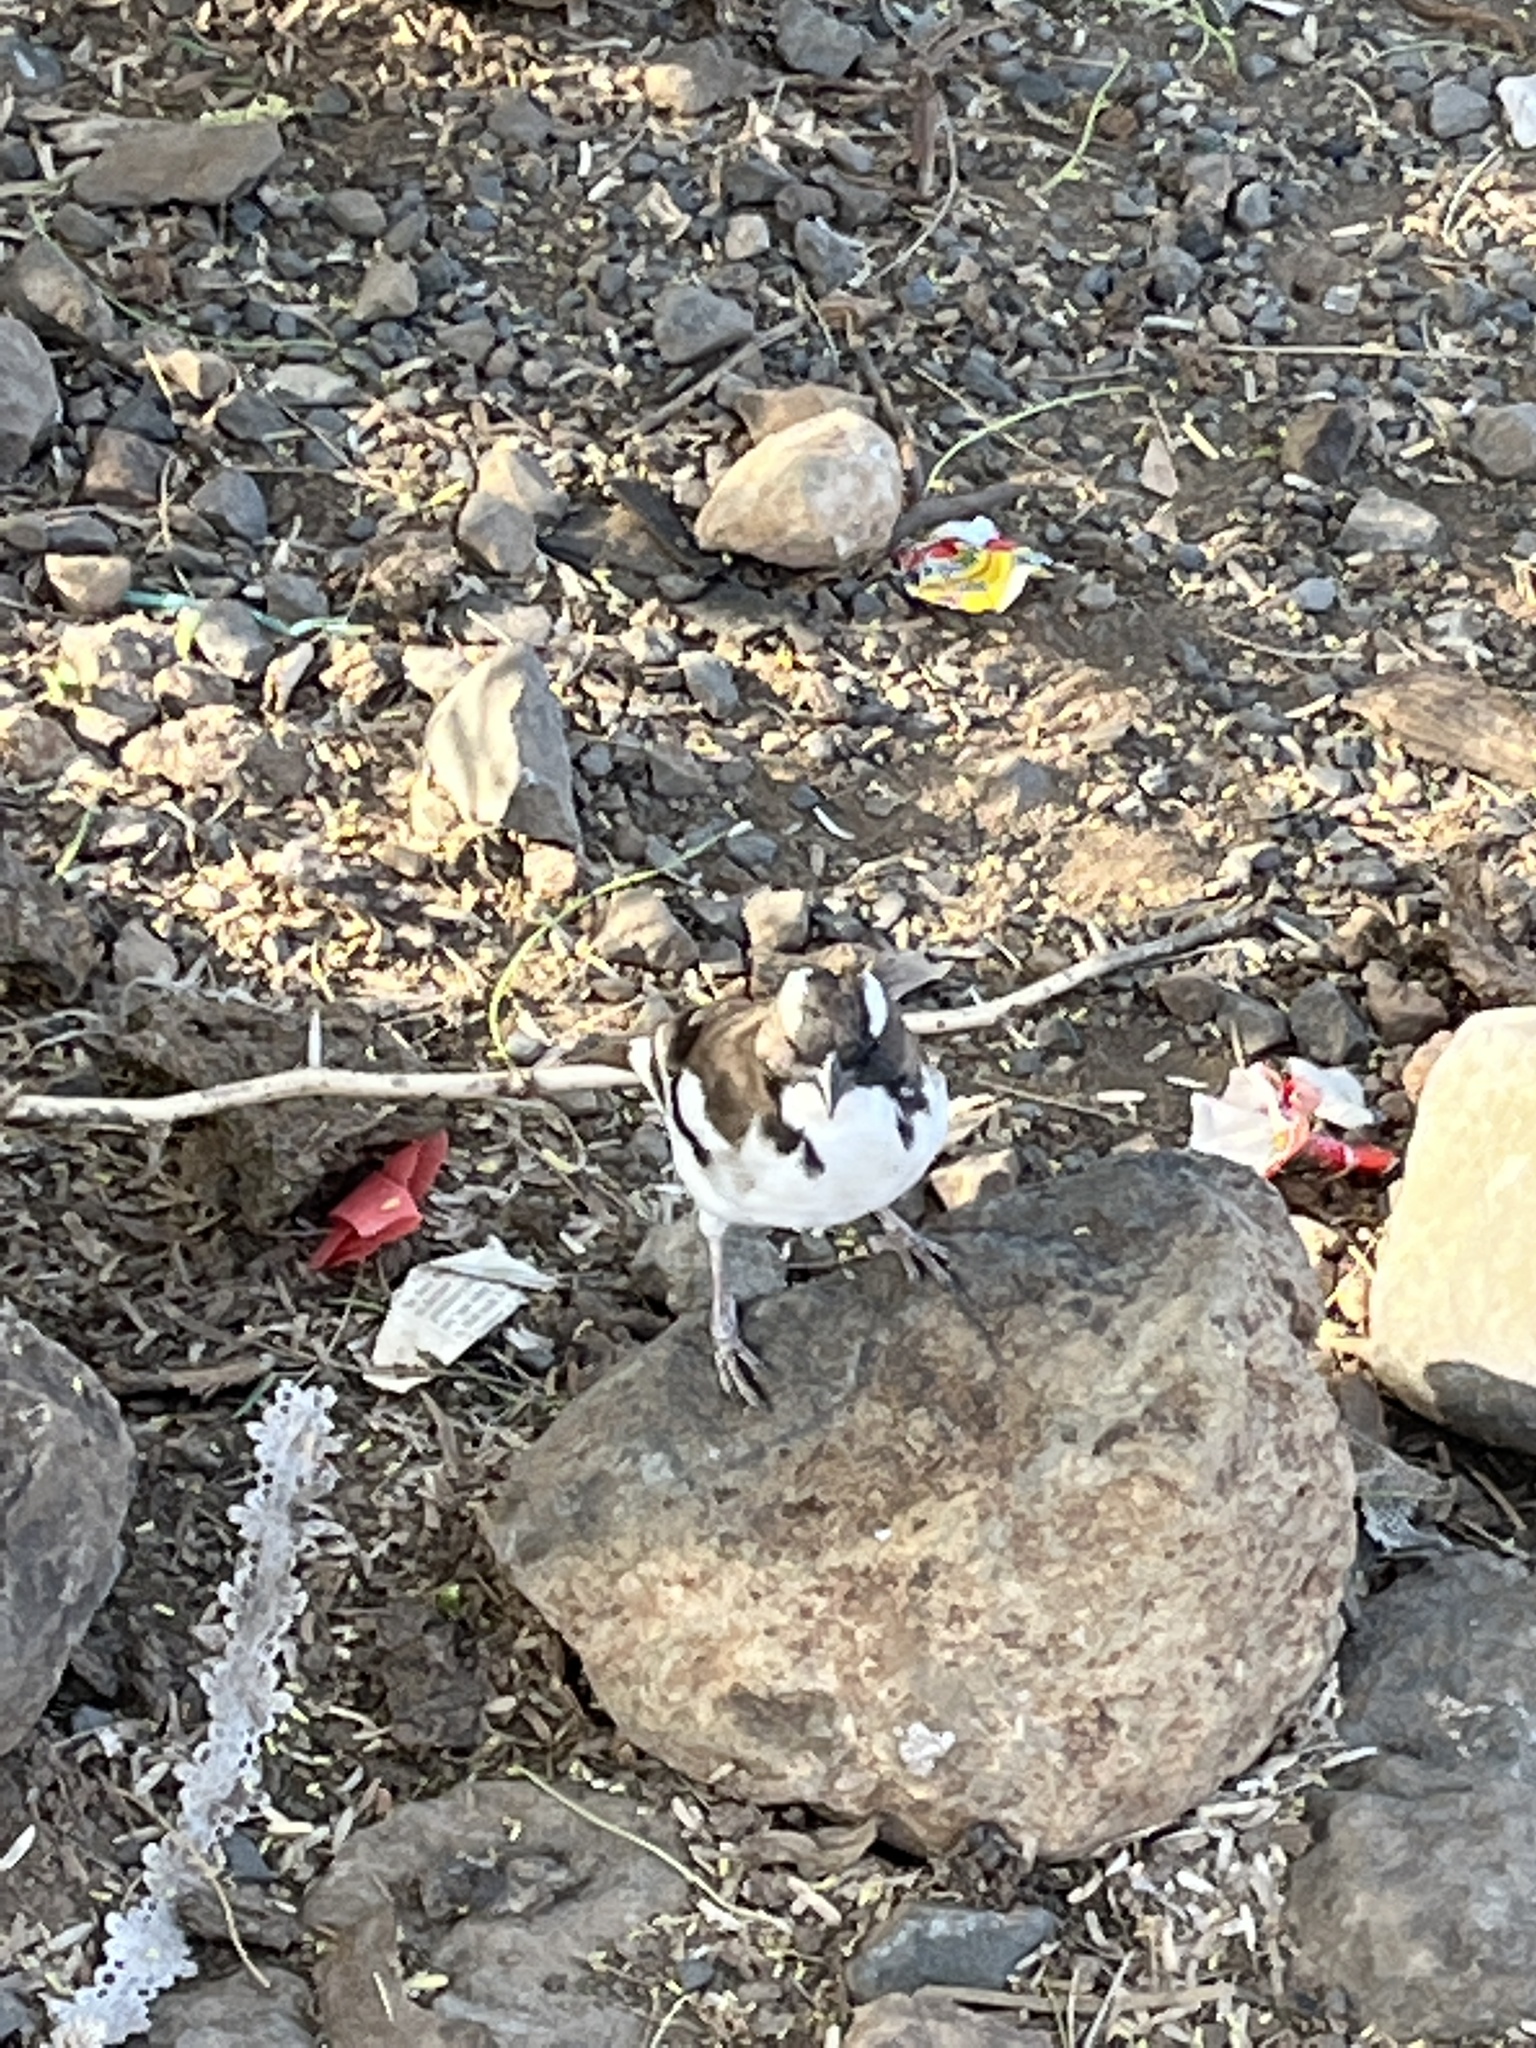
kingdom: Animalia
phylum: Chordata
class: Aves
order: Passeriformes
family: Passeridae
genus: Plocepasser
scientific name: Plocepasser mahali
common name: White-browed sparrow-weaver
